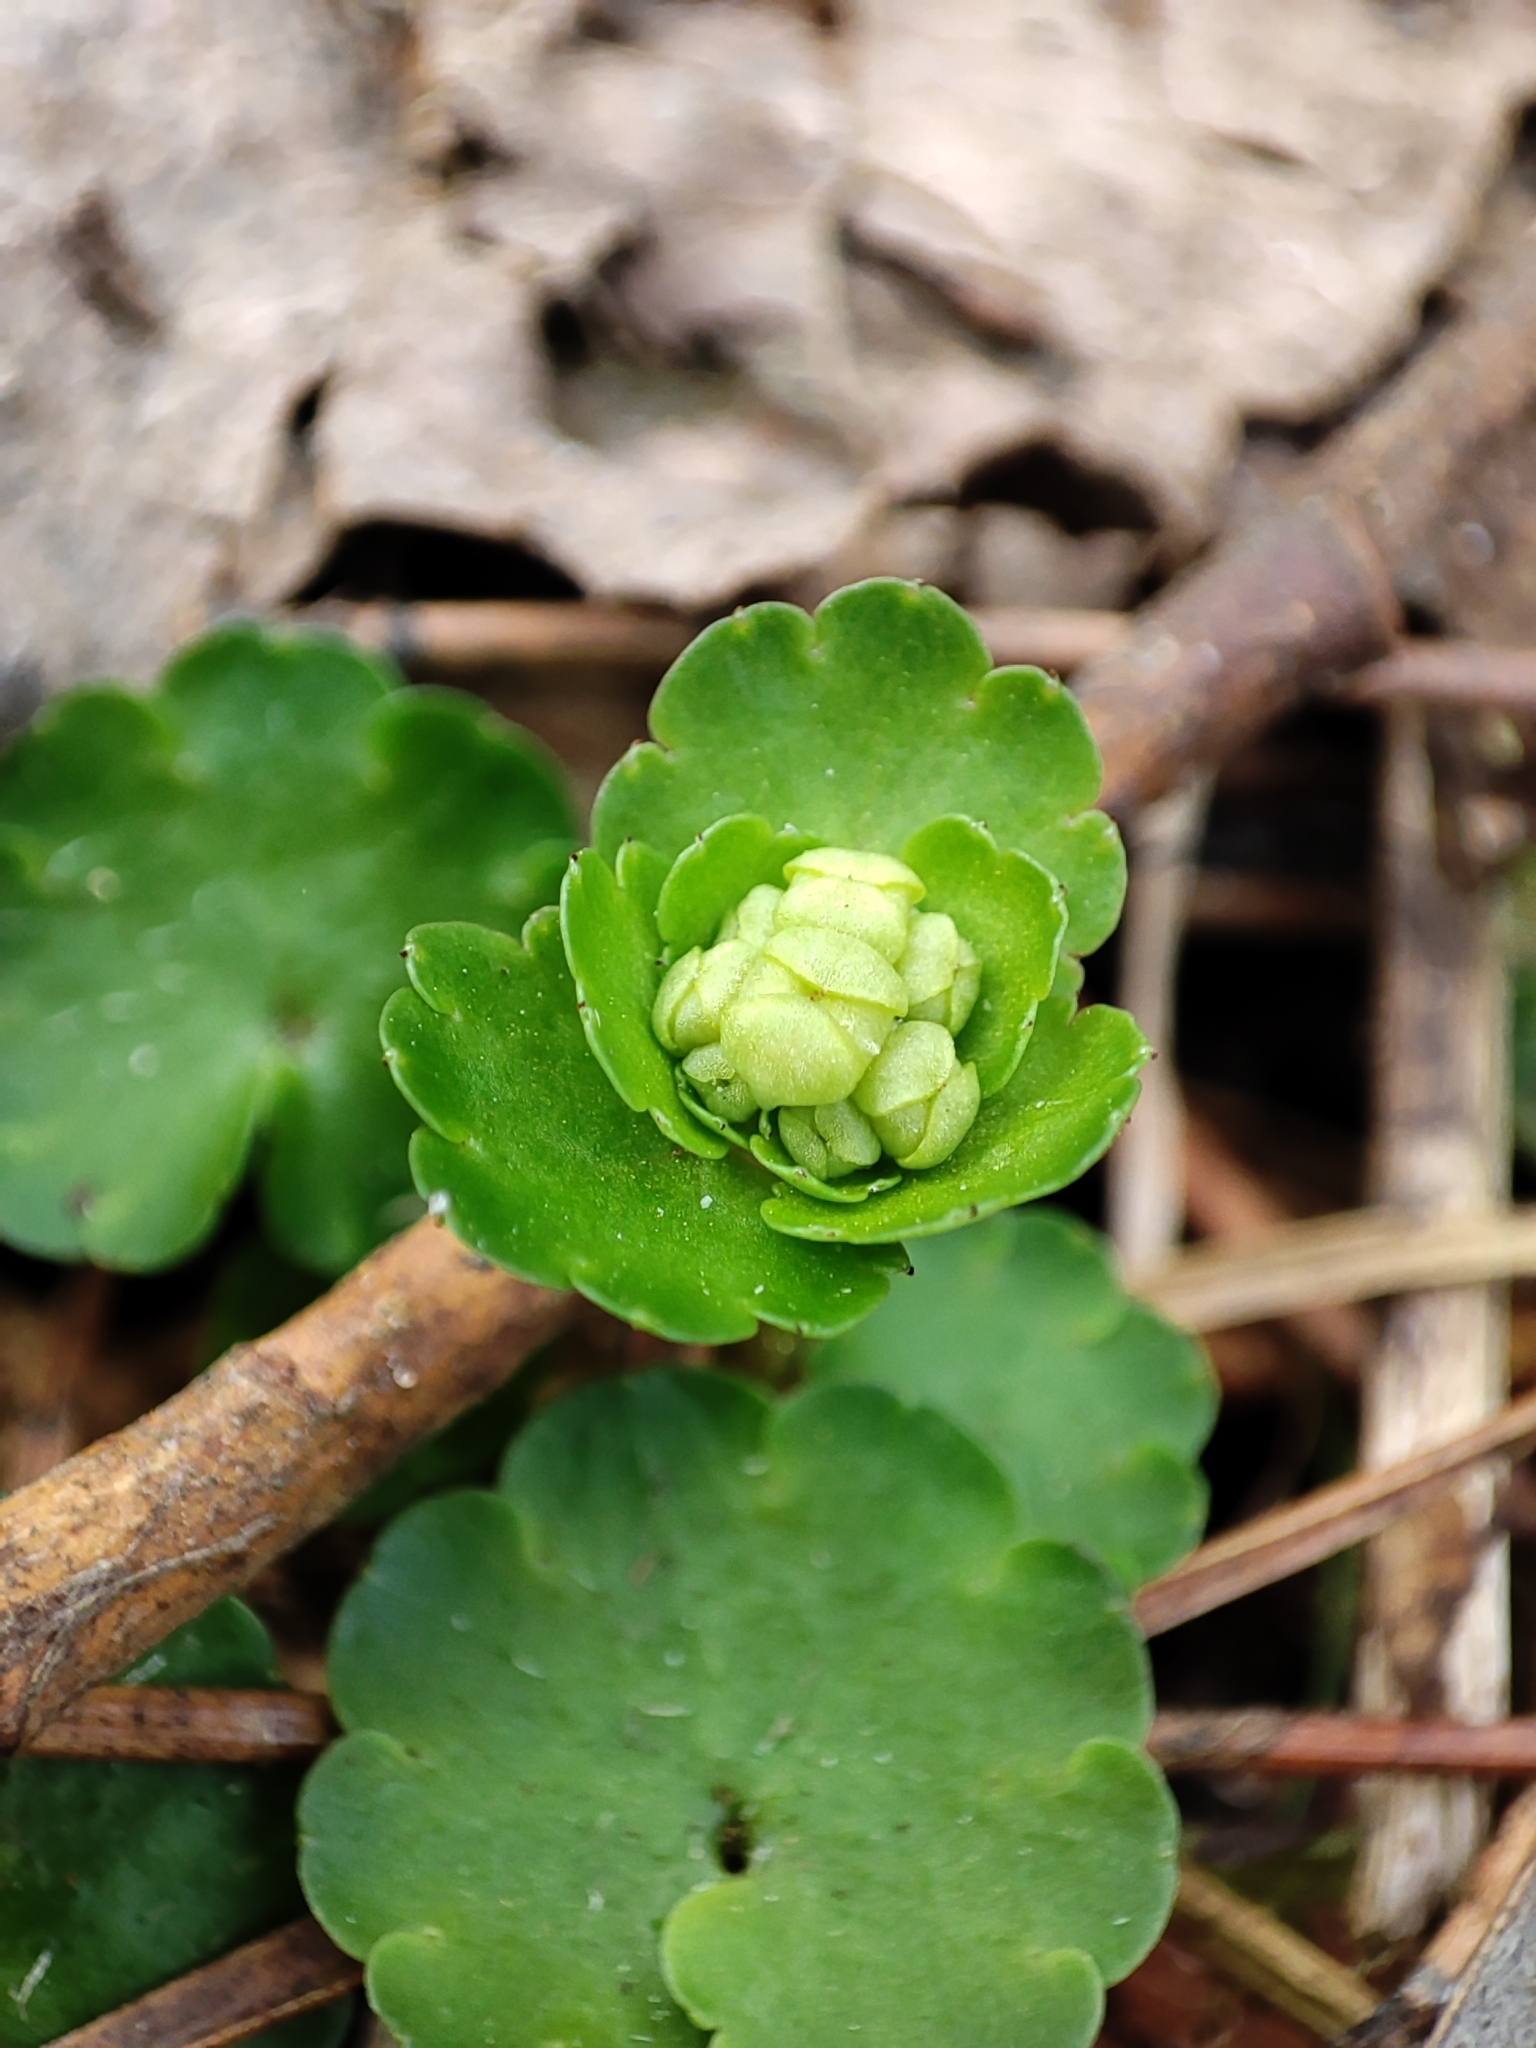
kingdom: Plantae
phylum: Tracheophyta
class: Magnoliopsida
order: Saxifragales
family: Saxifragaceae
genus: Chrysosplenium
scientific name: Chrysosplenium alternifolium
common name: Alternate-leaved golden-saxifrage
